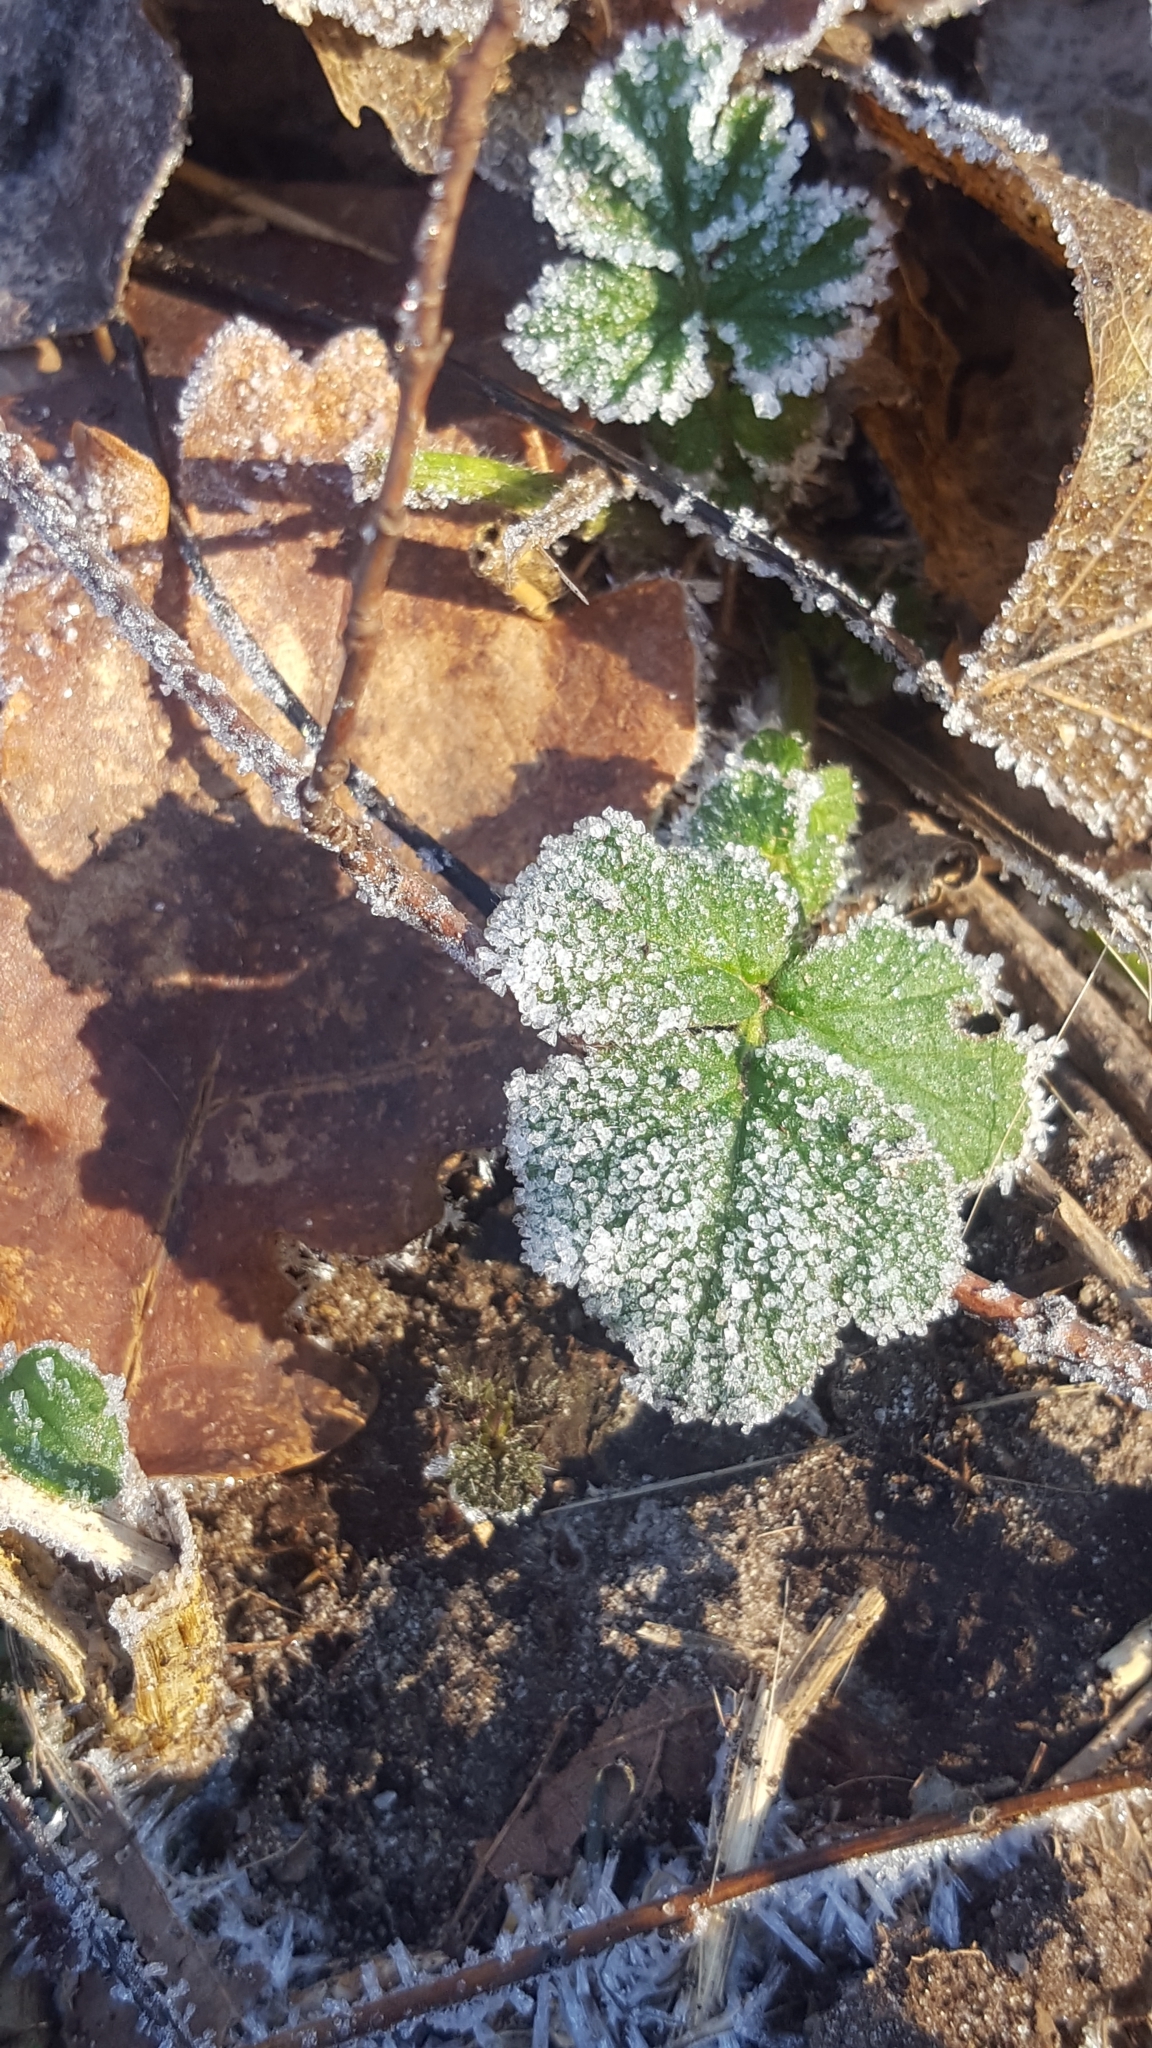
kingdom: Plantae
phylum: Tracheophyta
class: Magnoliopsida
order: Rosales
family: Rosaceae
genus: Geum
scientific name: Geum urbanum
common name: Wood avens
